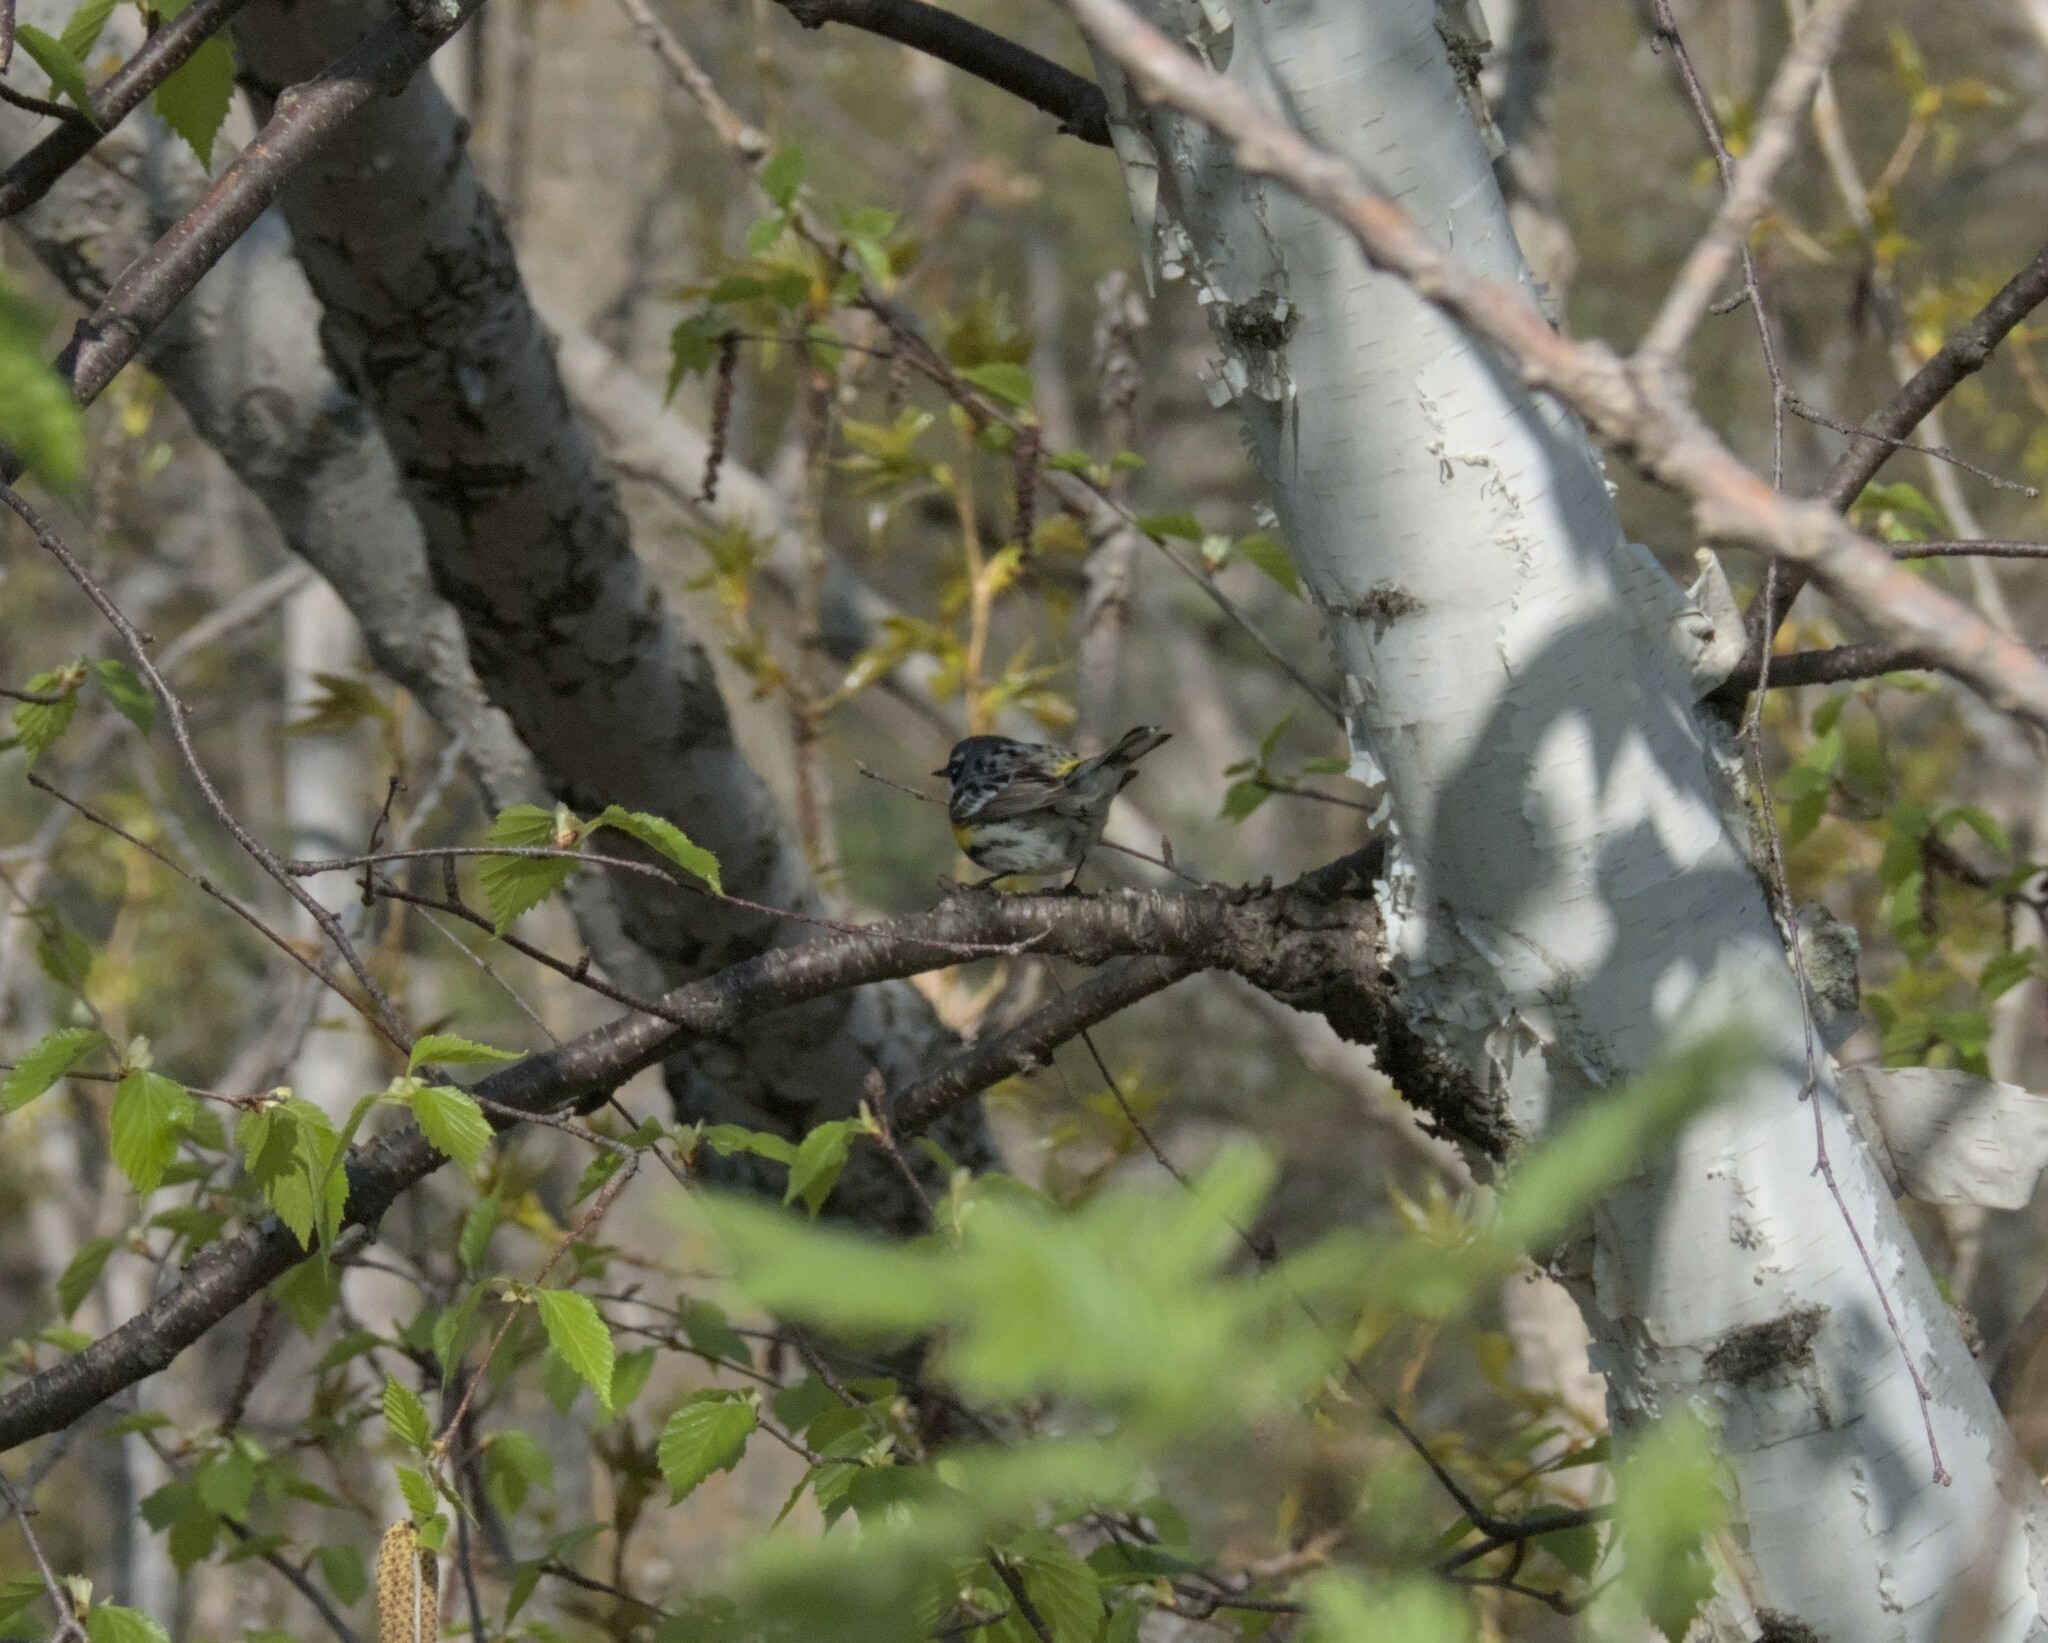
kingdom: Animalia
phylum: Chordata
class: Aves
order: Passeriformes
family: Parulidae
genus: Setophaga
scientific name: Setophaga coronata
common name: Myrtle warbler
